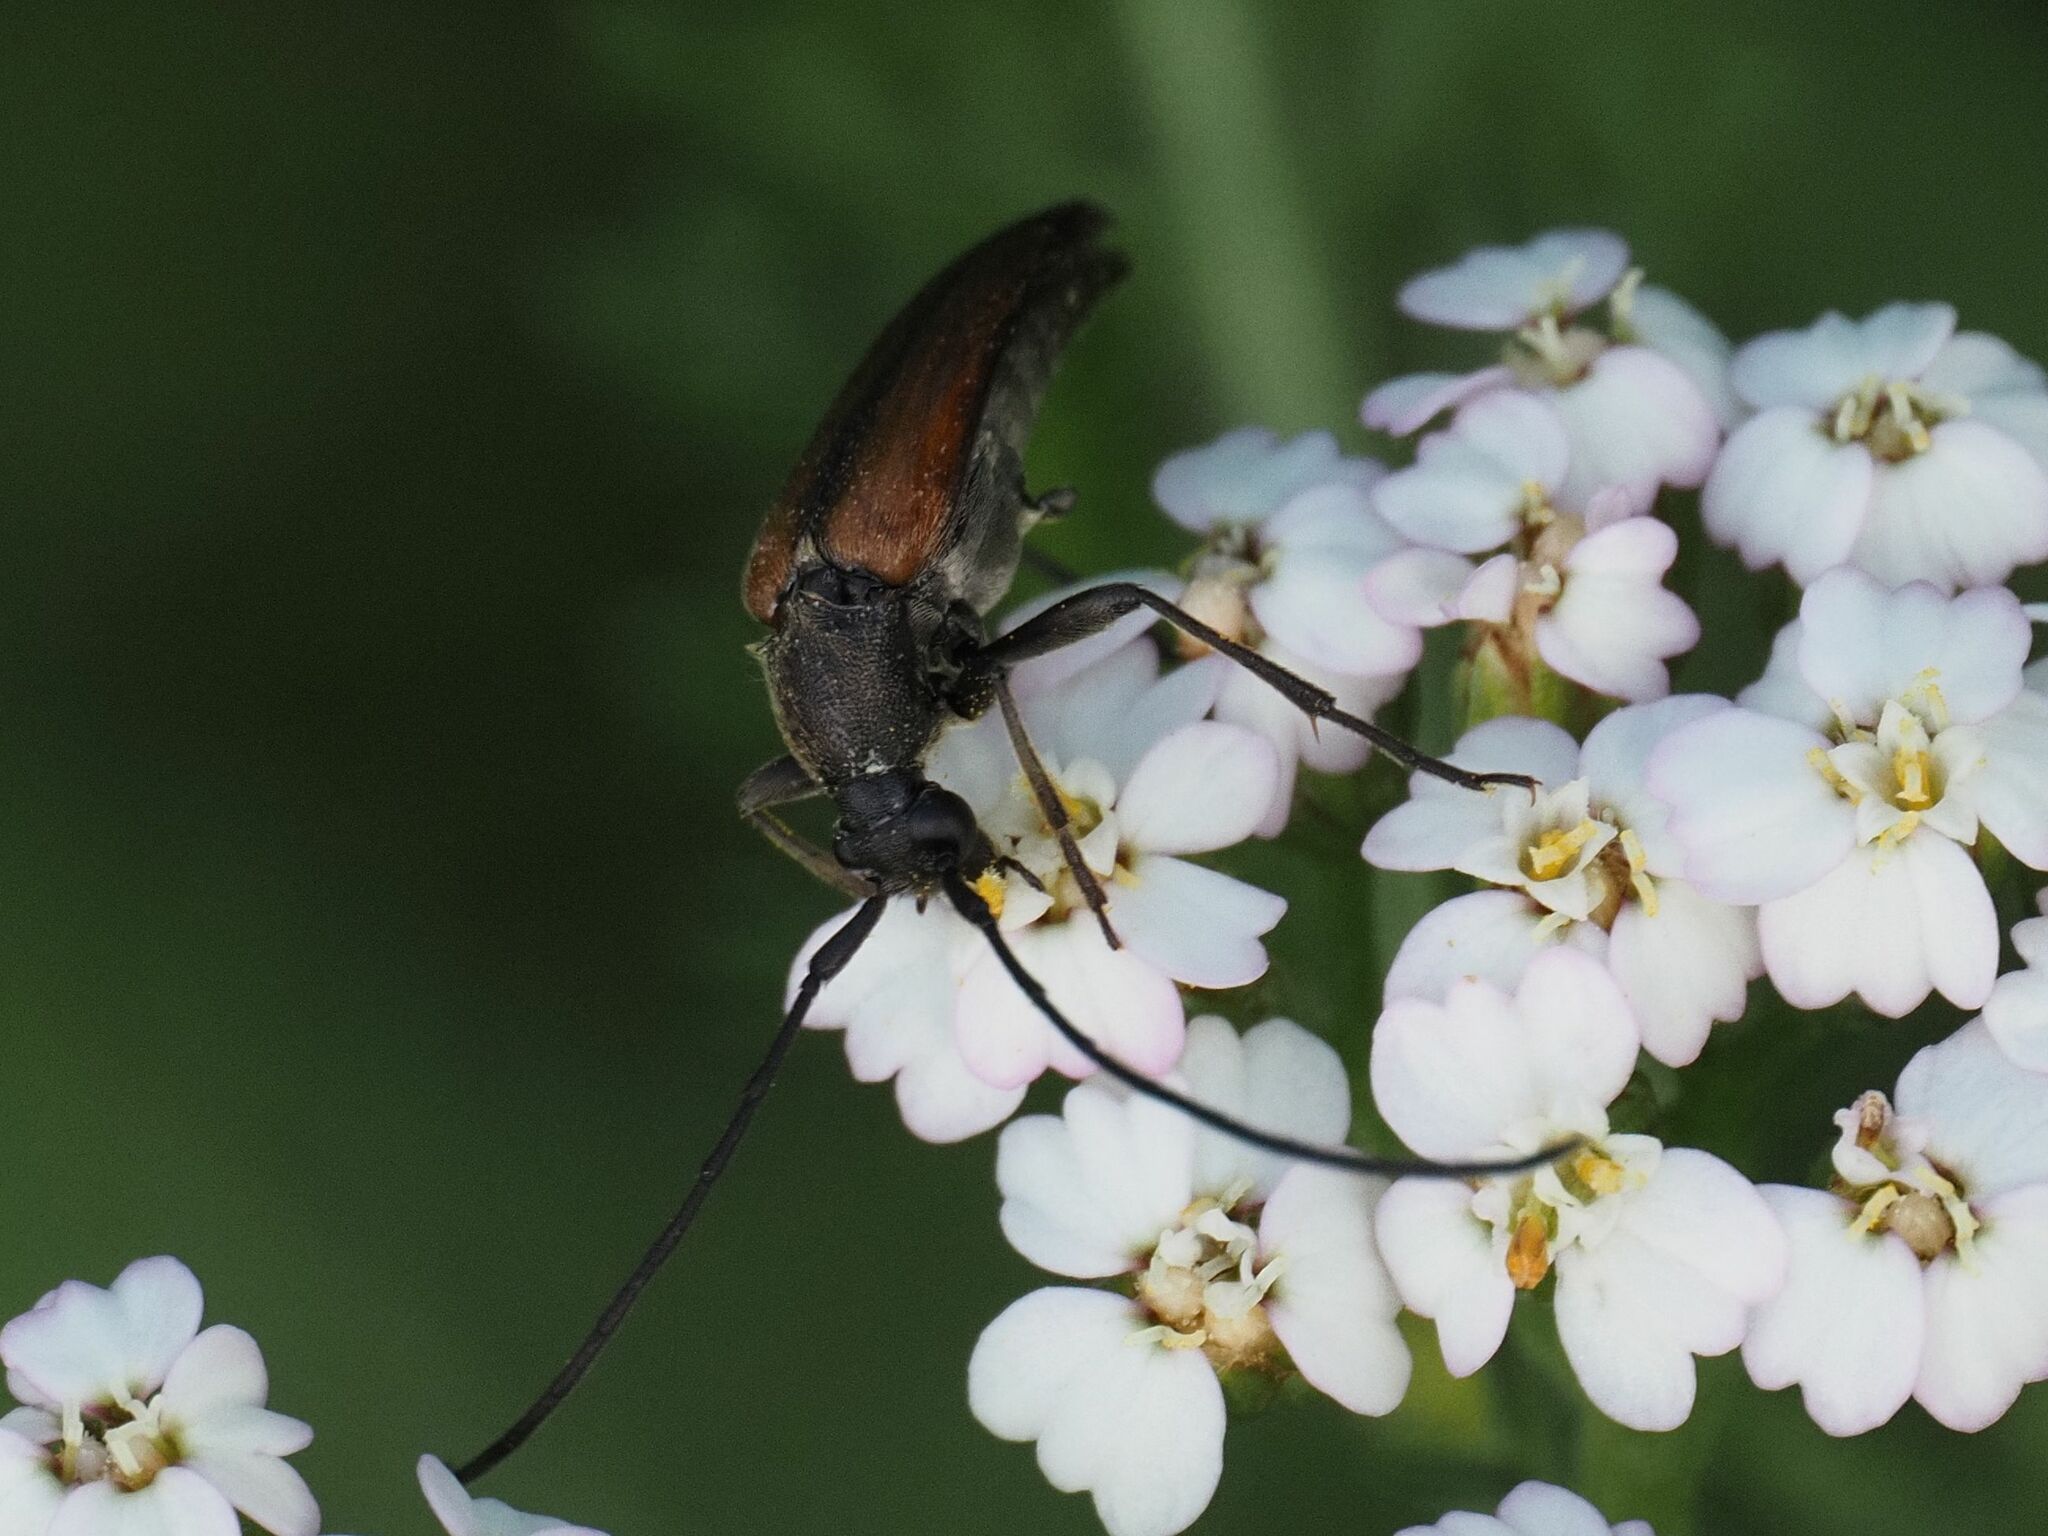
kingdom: Animalia
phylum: Arthropoda
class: Insecta
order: Coleoptera
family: Cerambycidae
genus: Stenurella
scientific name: Stenurella melanura
